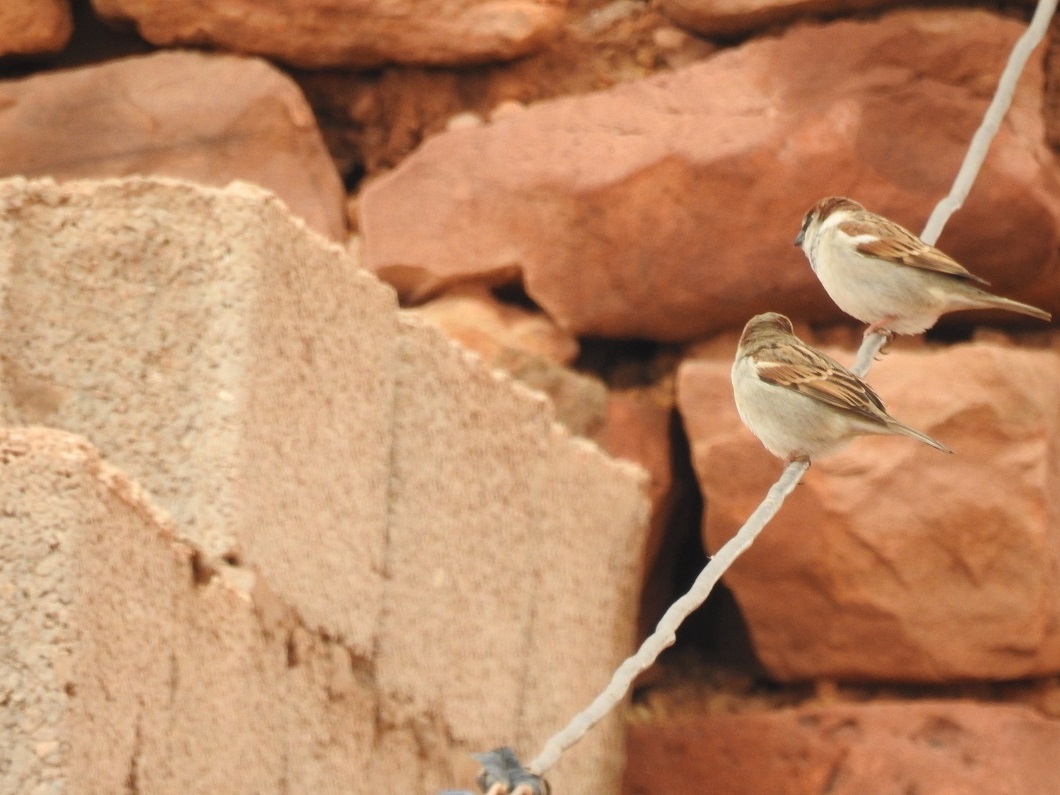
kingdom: Animalia
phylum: Chordata
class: Aves
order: Passeriformes
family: Passeridae
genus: Passer
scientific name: Passer domesticus
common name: House sparrow
